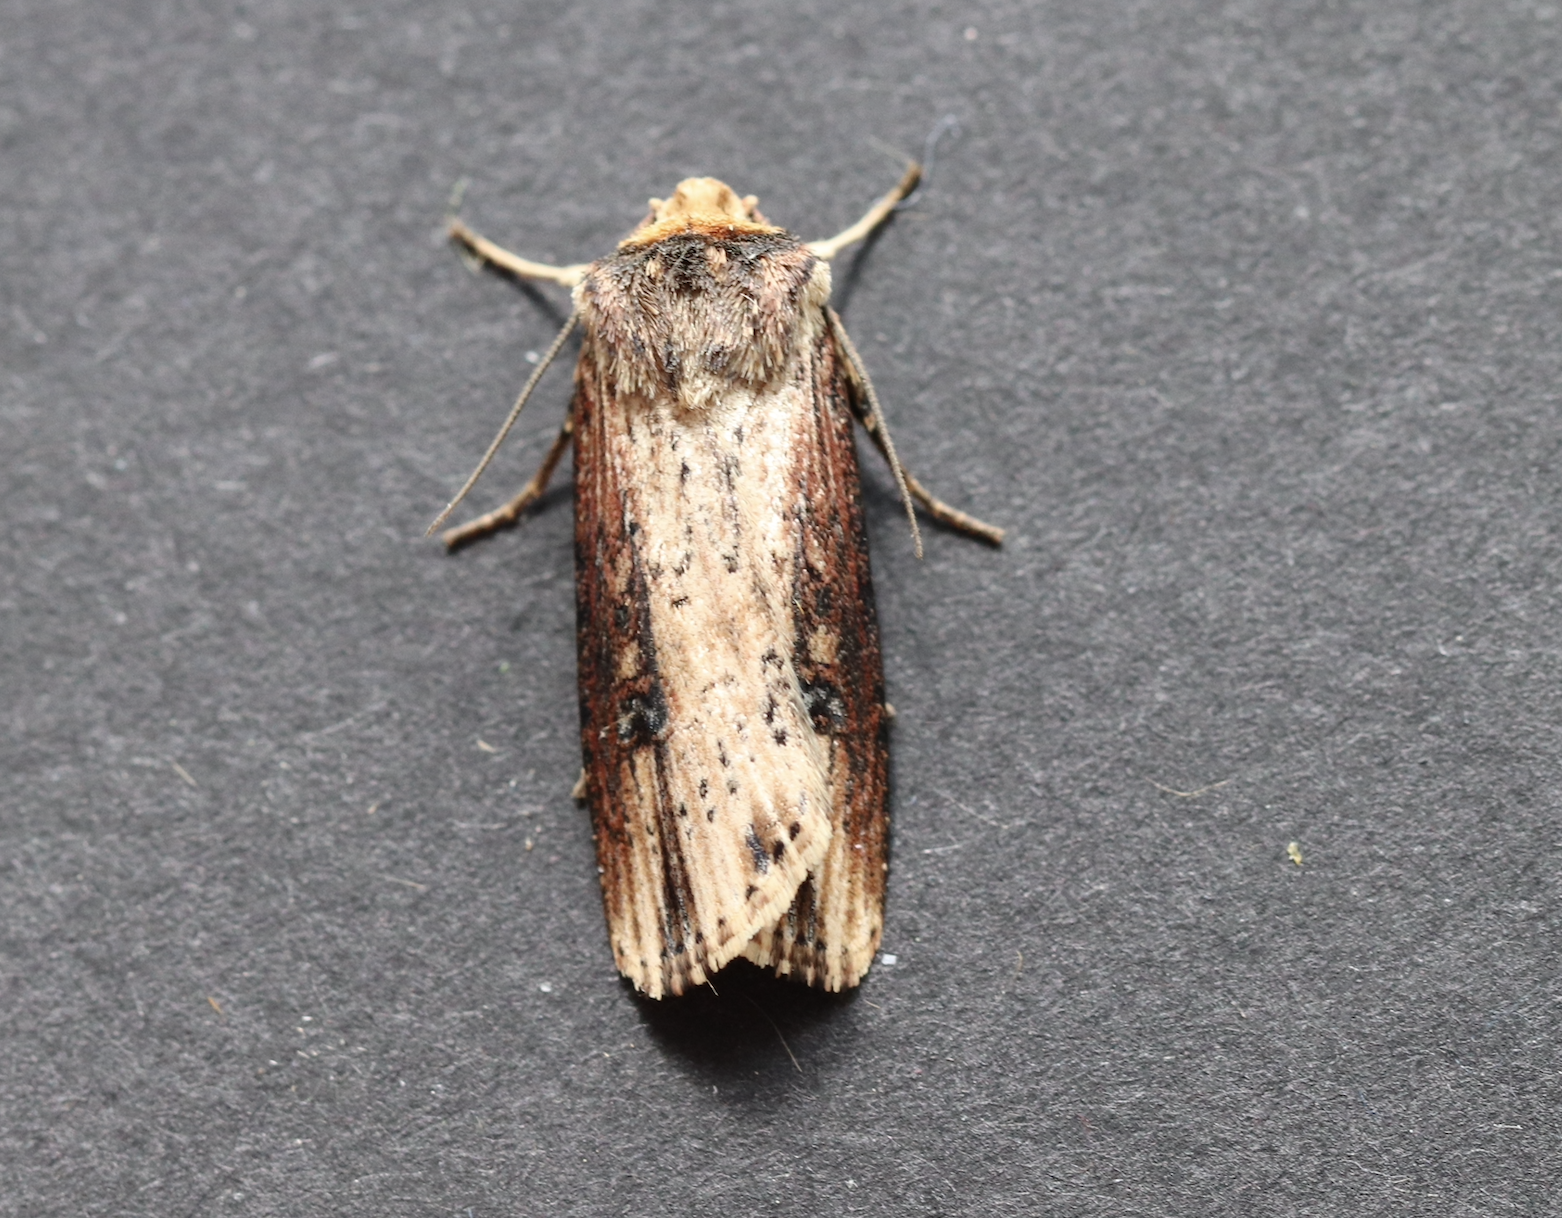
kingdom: Animalia
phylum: Arthropoda
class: Insecta
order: Lepidoptera
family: Noctuidae
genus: Axylia
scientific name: Axylia putris
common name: Flame
